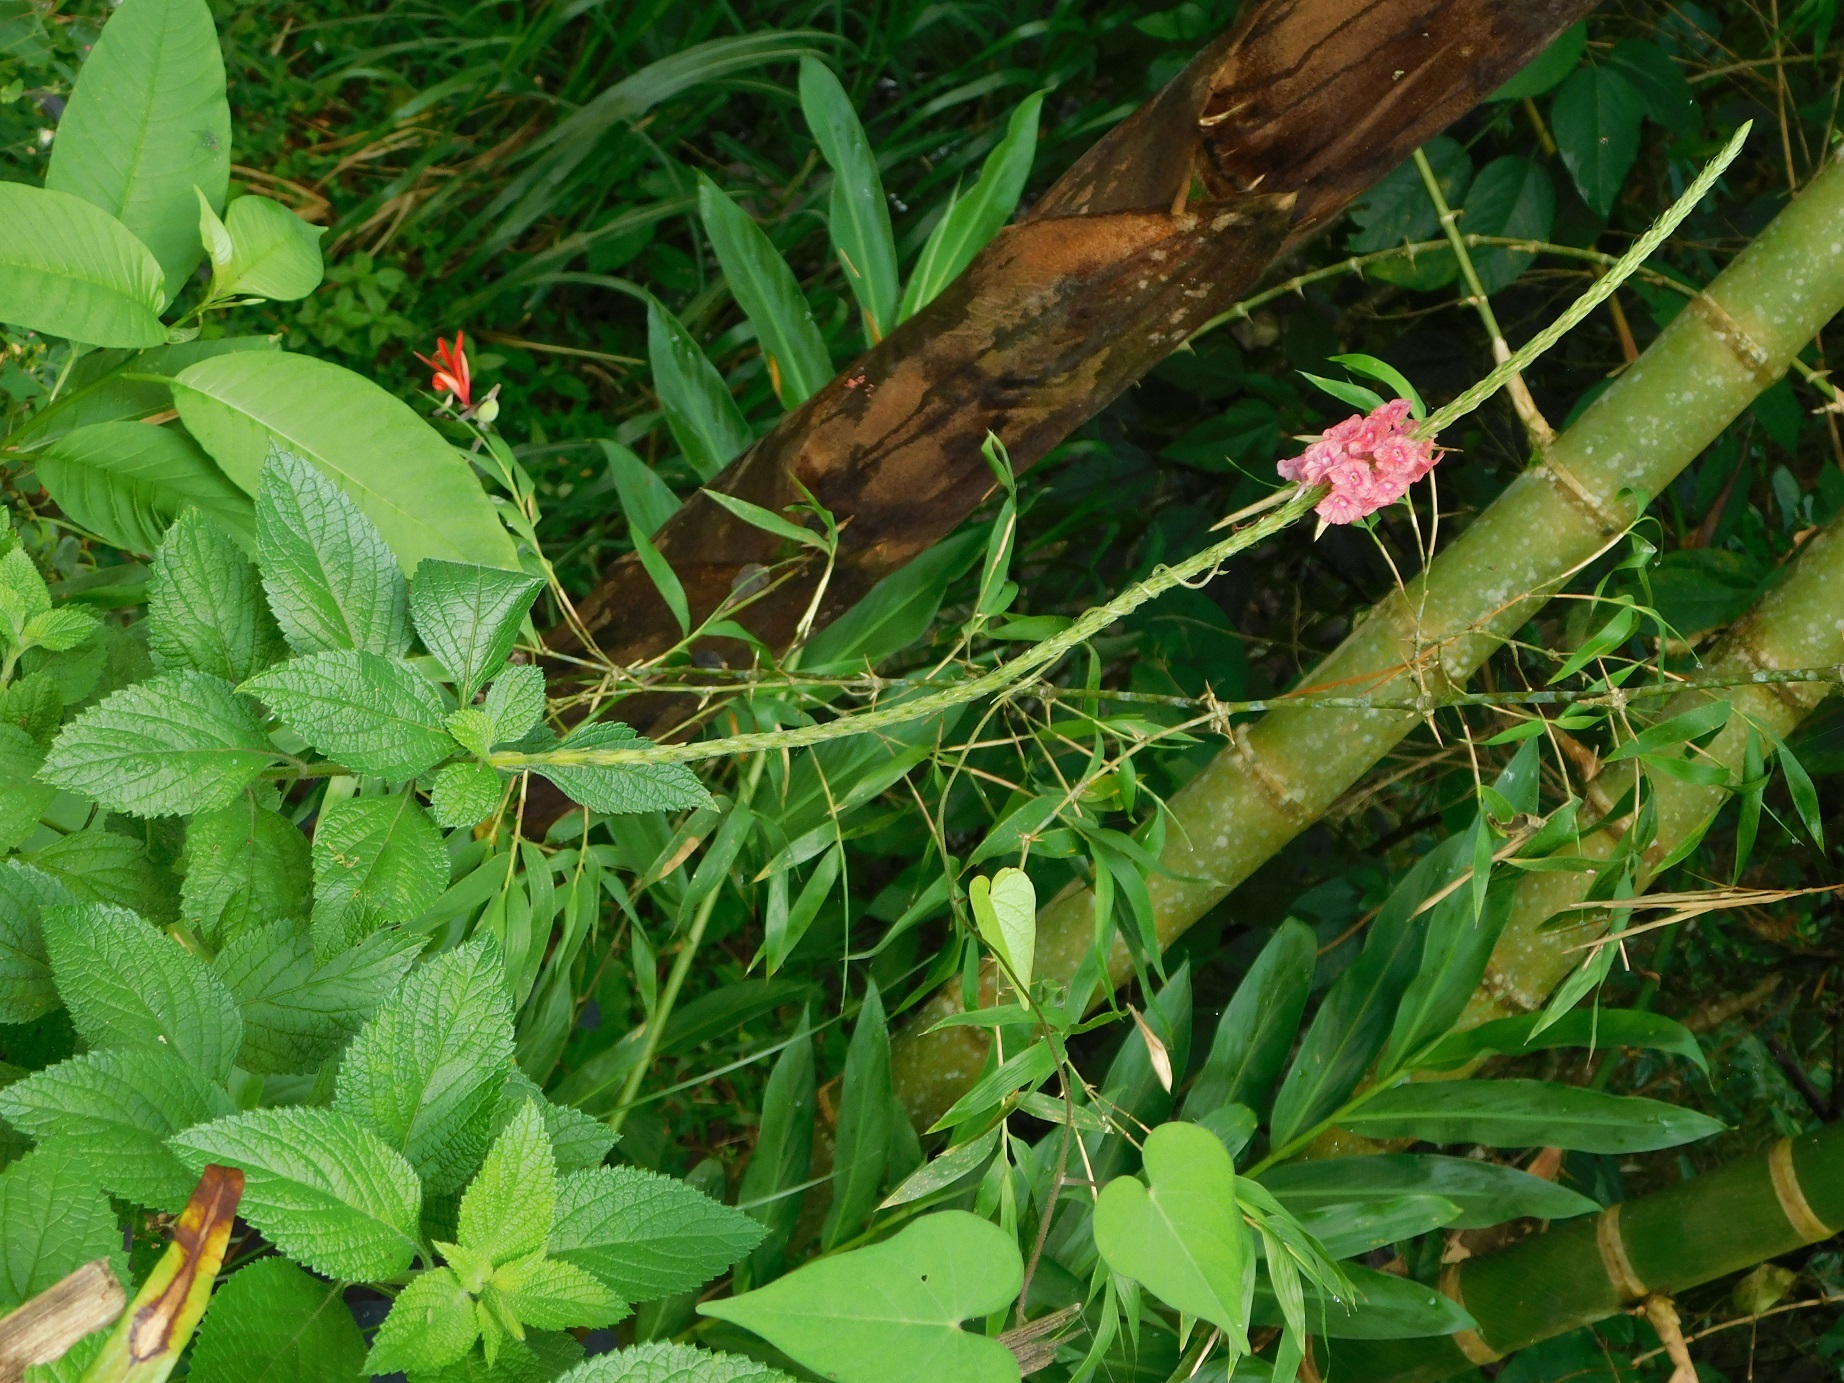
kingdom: Plantae
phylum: Tracheophyta
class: Magnoliopsida
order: Lamiales
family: Verbenaceae
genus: Stachytarpheta
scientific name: Stachytarpheta mutabilis
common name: Changeable velvetberry
